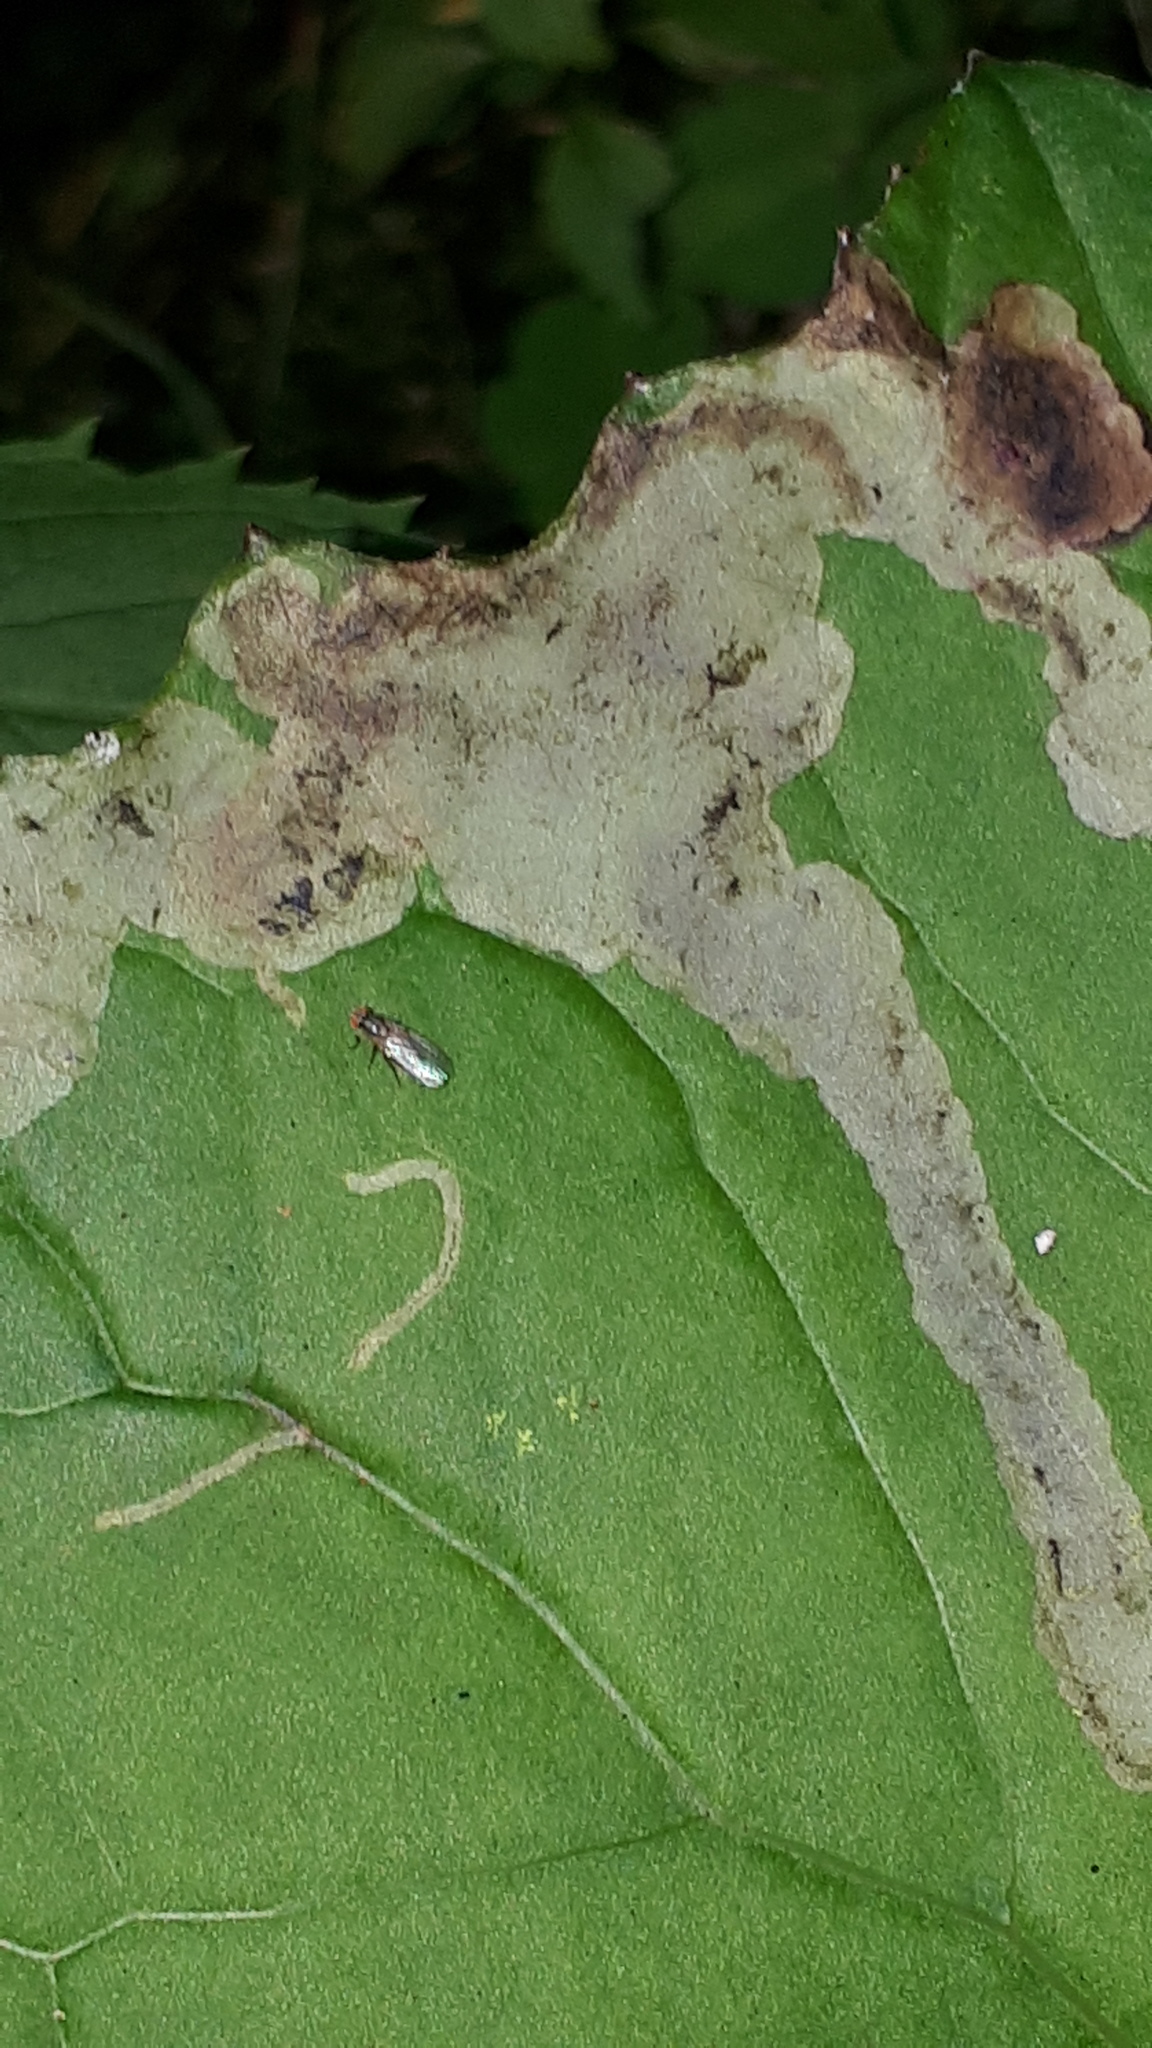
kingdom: Animalia
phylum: Arthropoda
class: Insecta
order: Diptera
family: Tephritidae
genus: Acidia
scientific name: Acidia cognata
